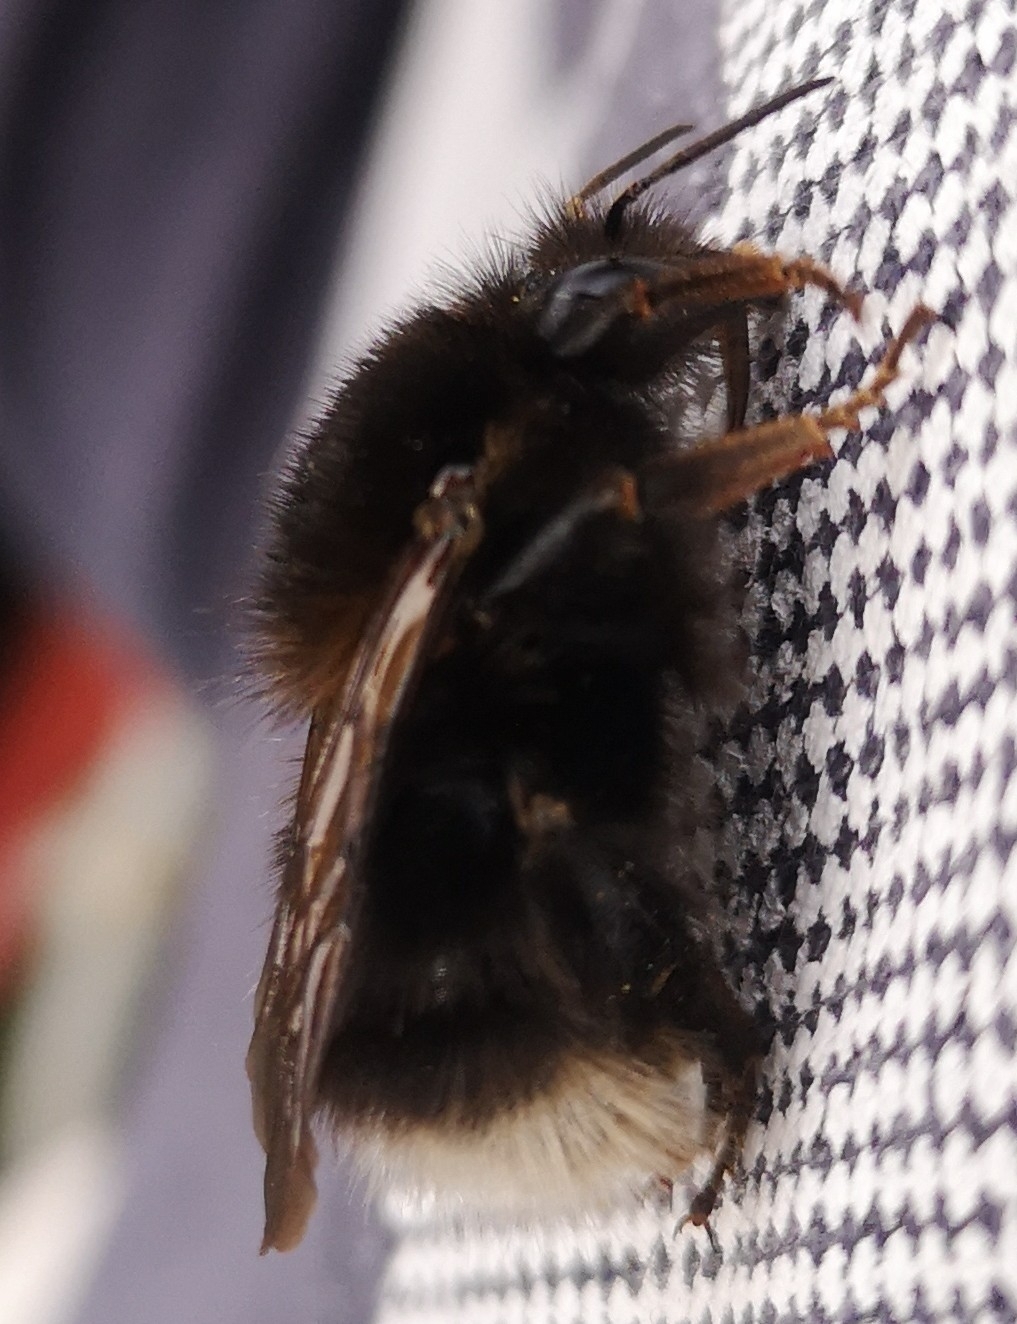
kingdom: Animalia
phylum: Arthropoda
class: Insecta
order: Hymenoptera
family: Apidae
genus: Bombus
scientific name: Bombus hypnorum
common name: New garden bumblebee
